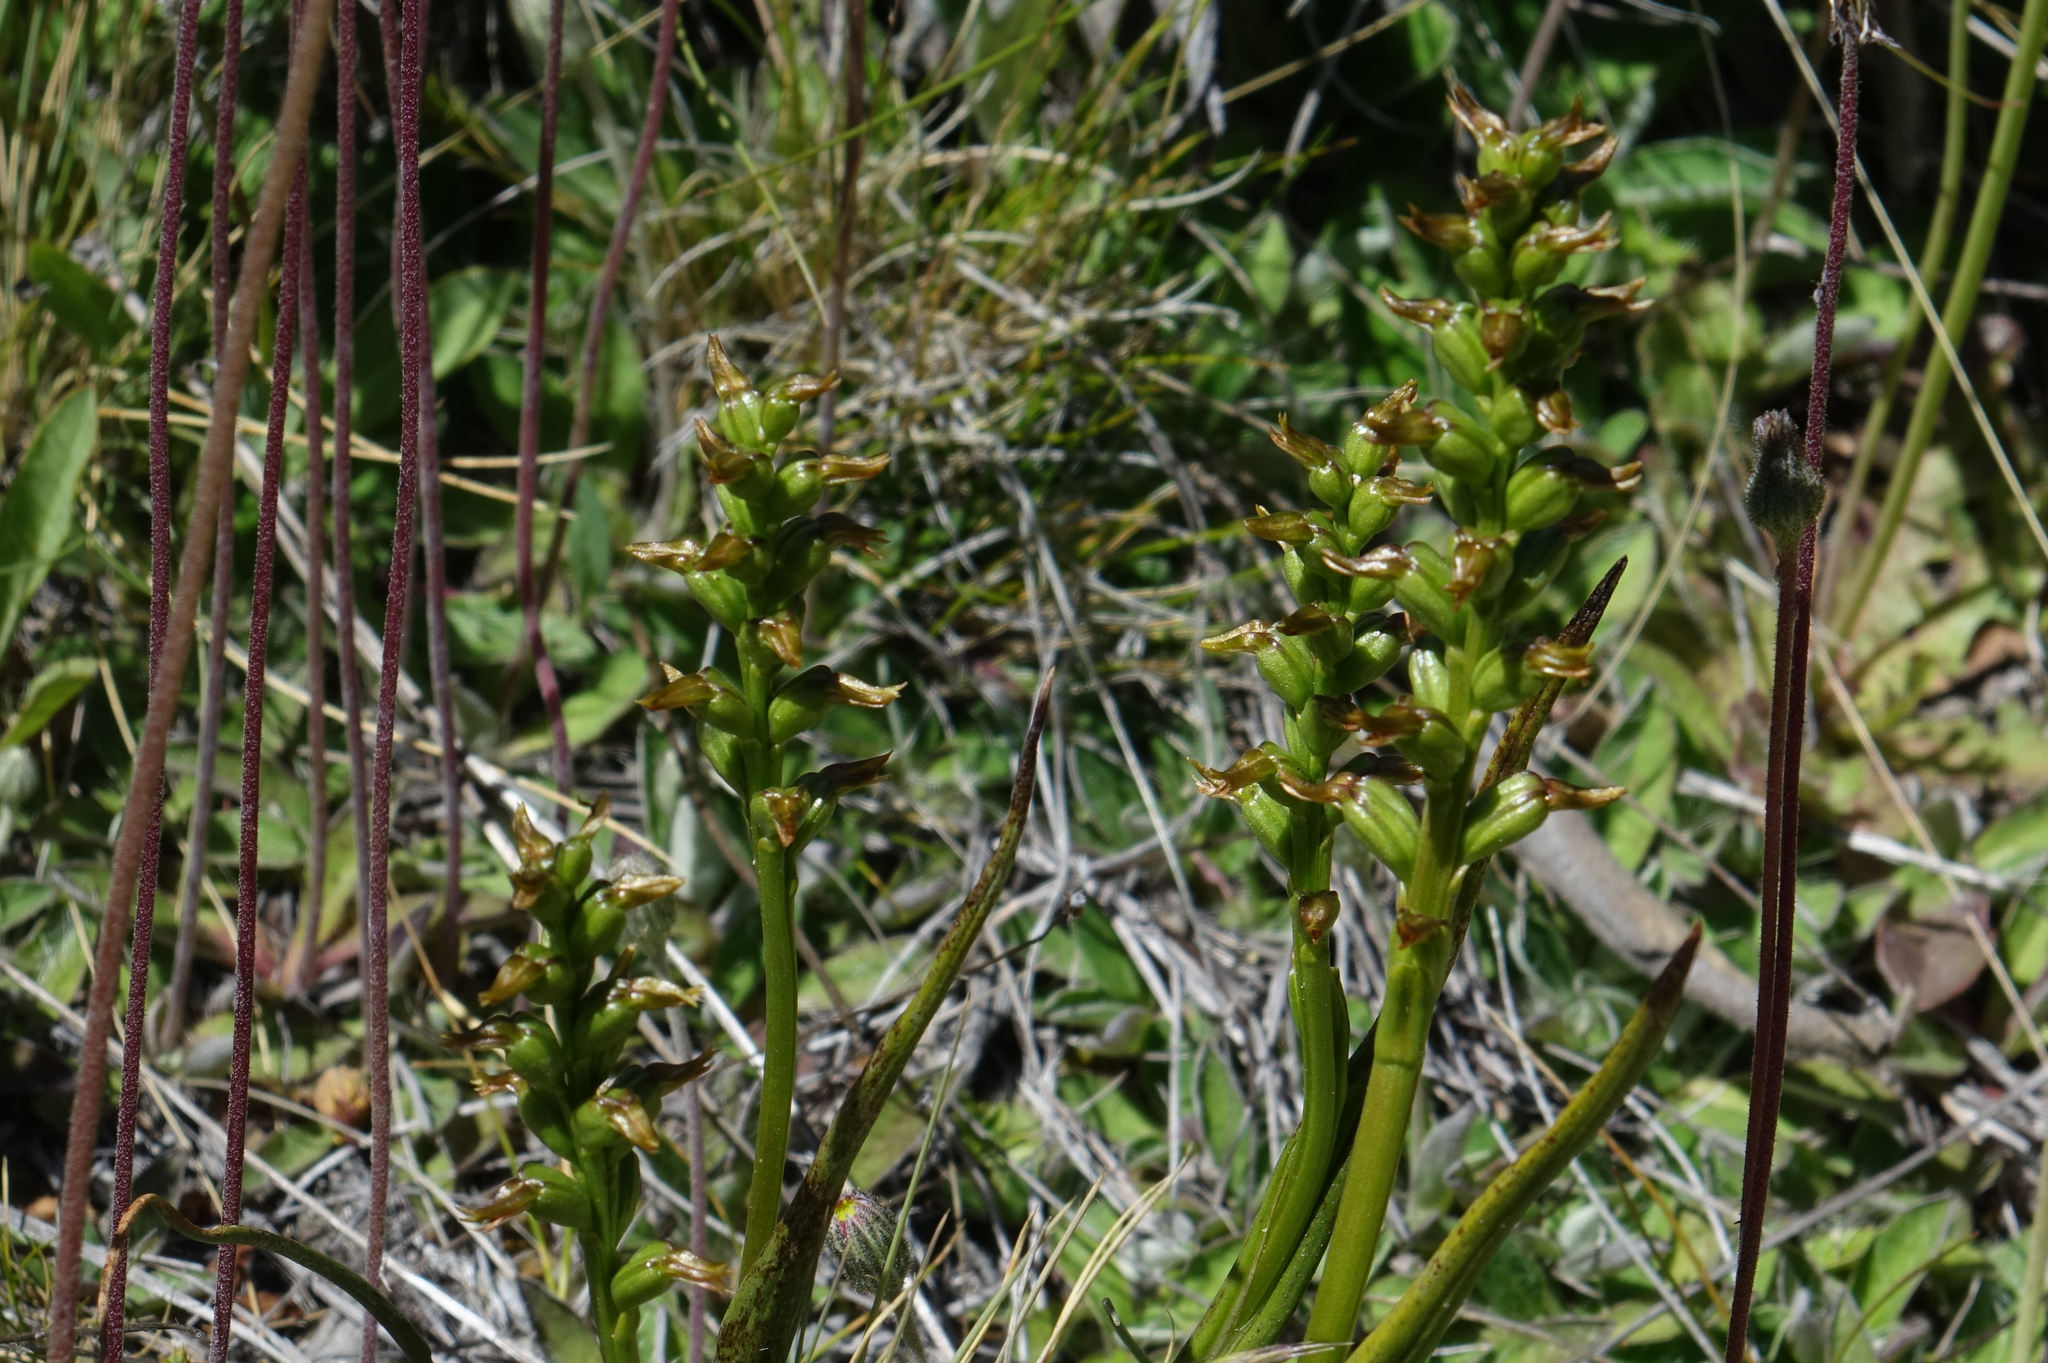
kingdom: Plantae
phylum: Tracheophyta
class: Liliopsida
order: Asparagales
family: Orchidaceae
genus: Prasophyllum
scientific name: Prasophyllum colensoi
